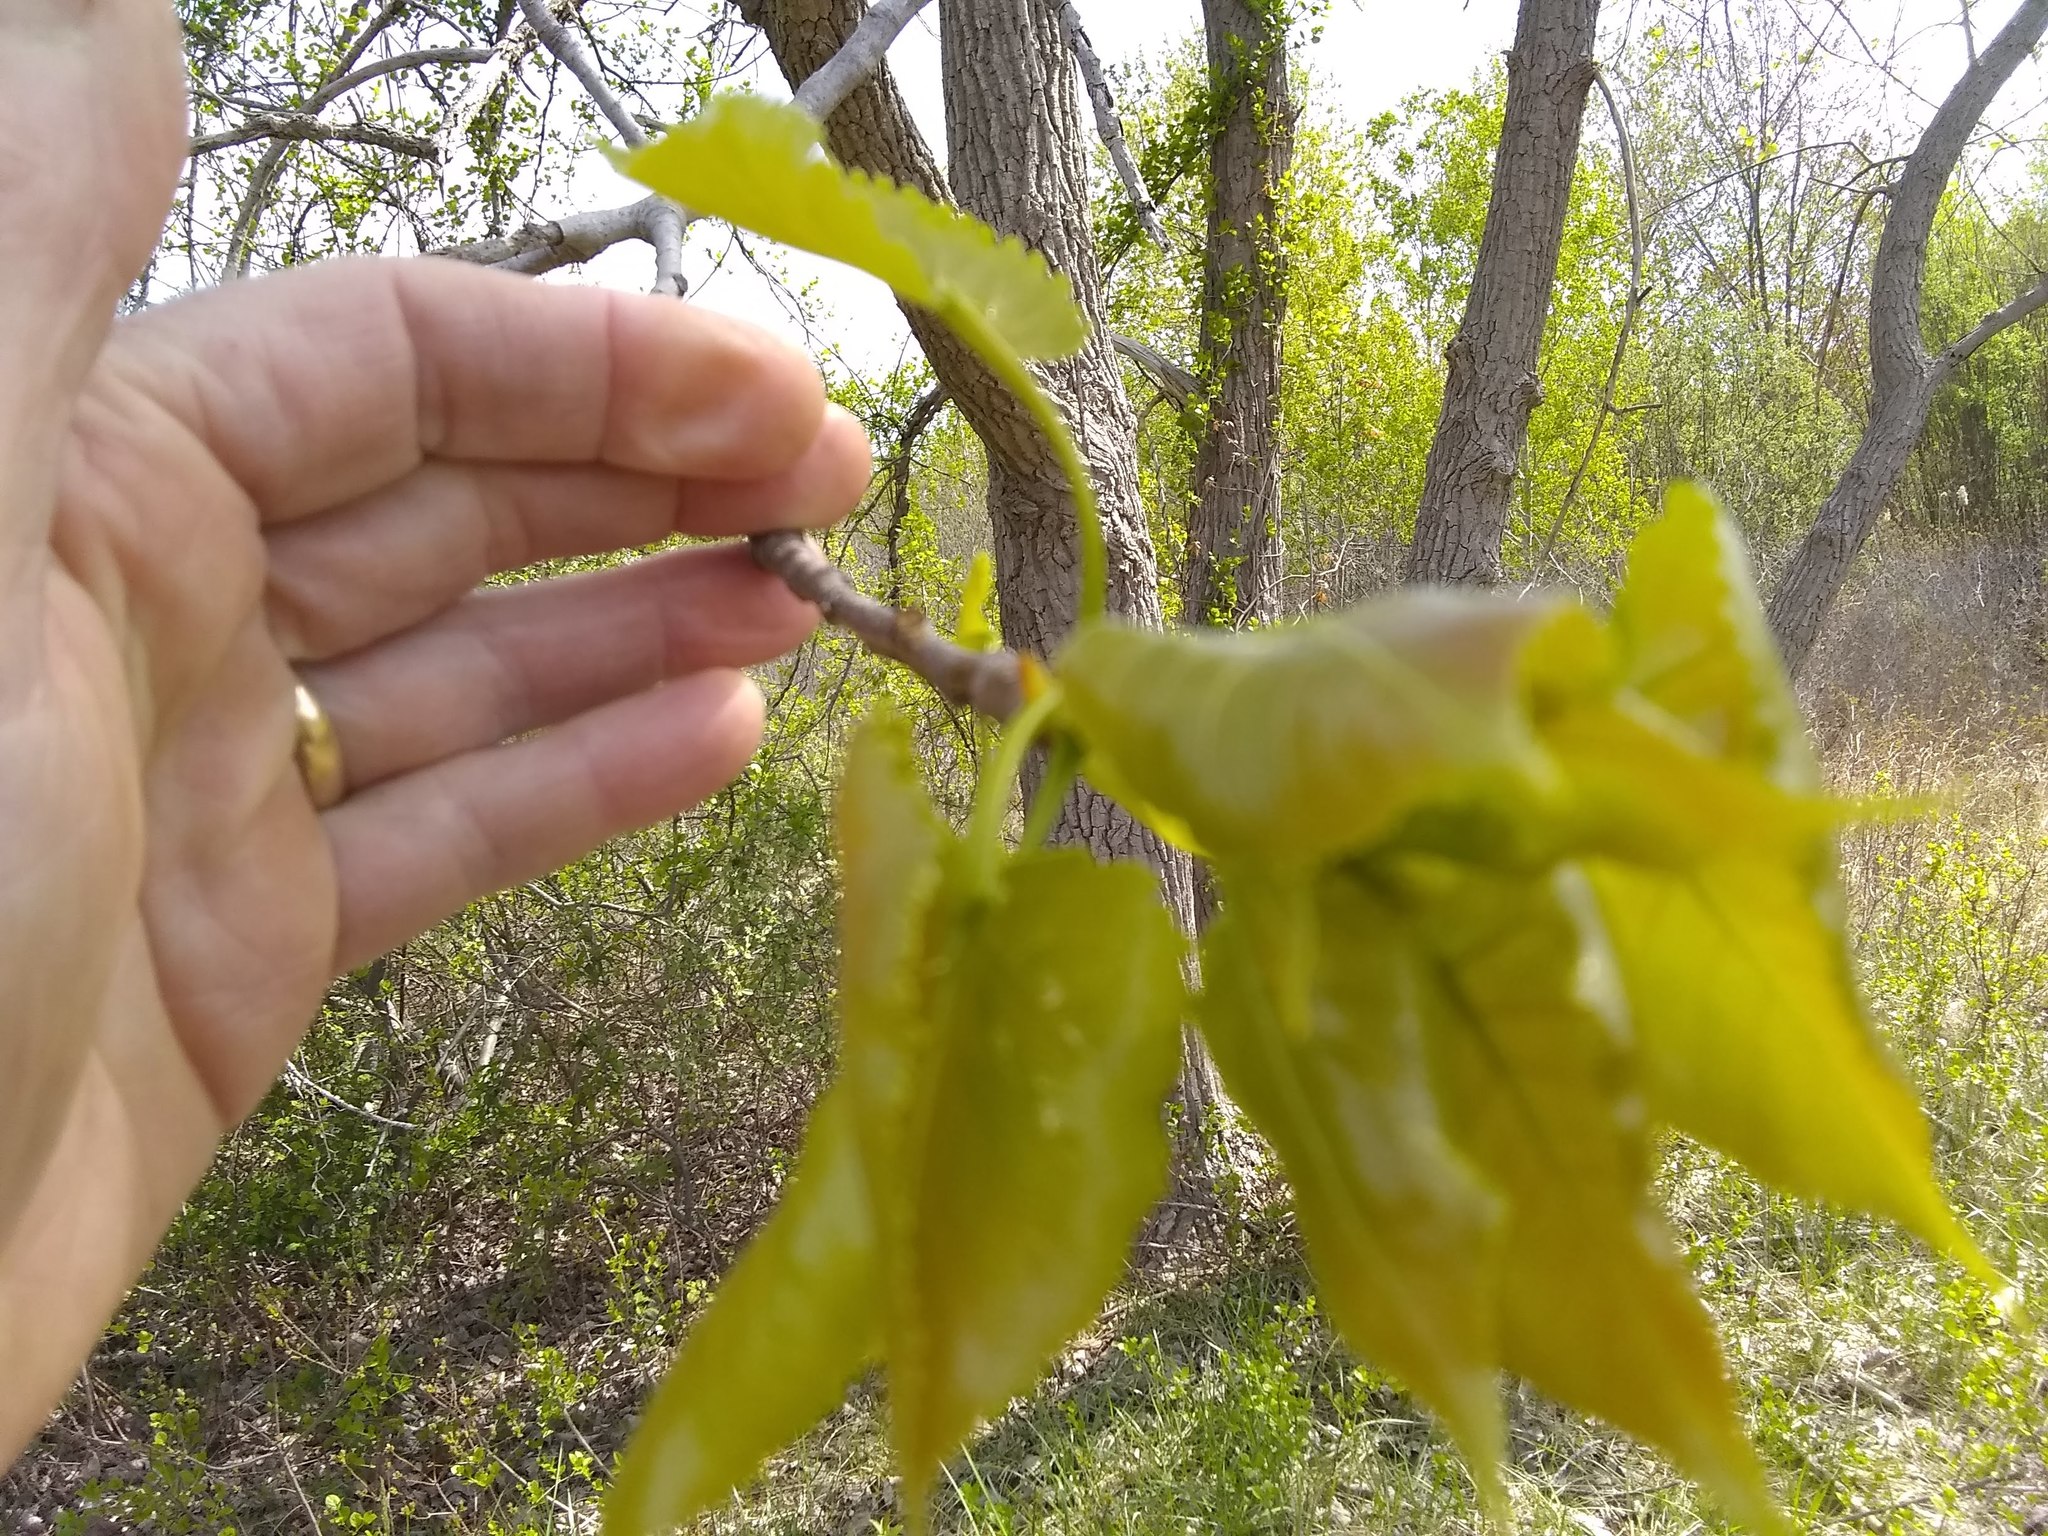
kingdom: Plantae
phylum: Tracheophyta
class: Magnoliopsida
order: Malpighiales
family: Salicaceae
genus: Populus
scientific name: Populus deltoides
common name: Eastern cottonwood
